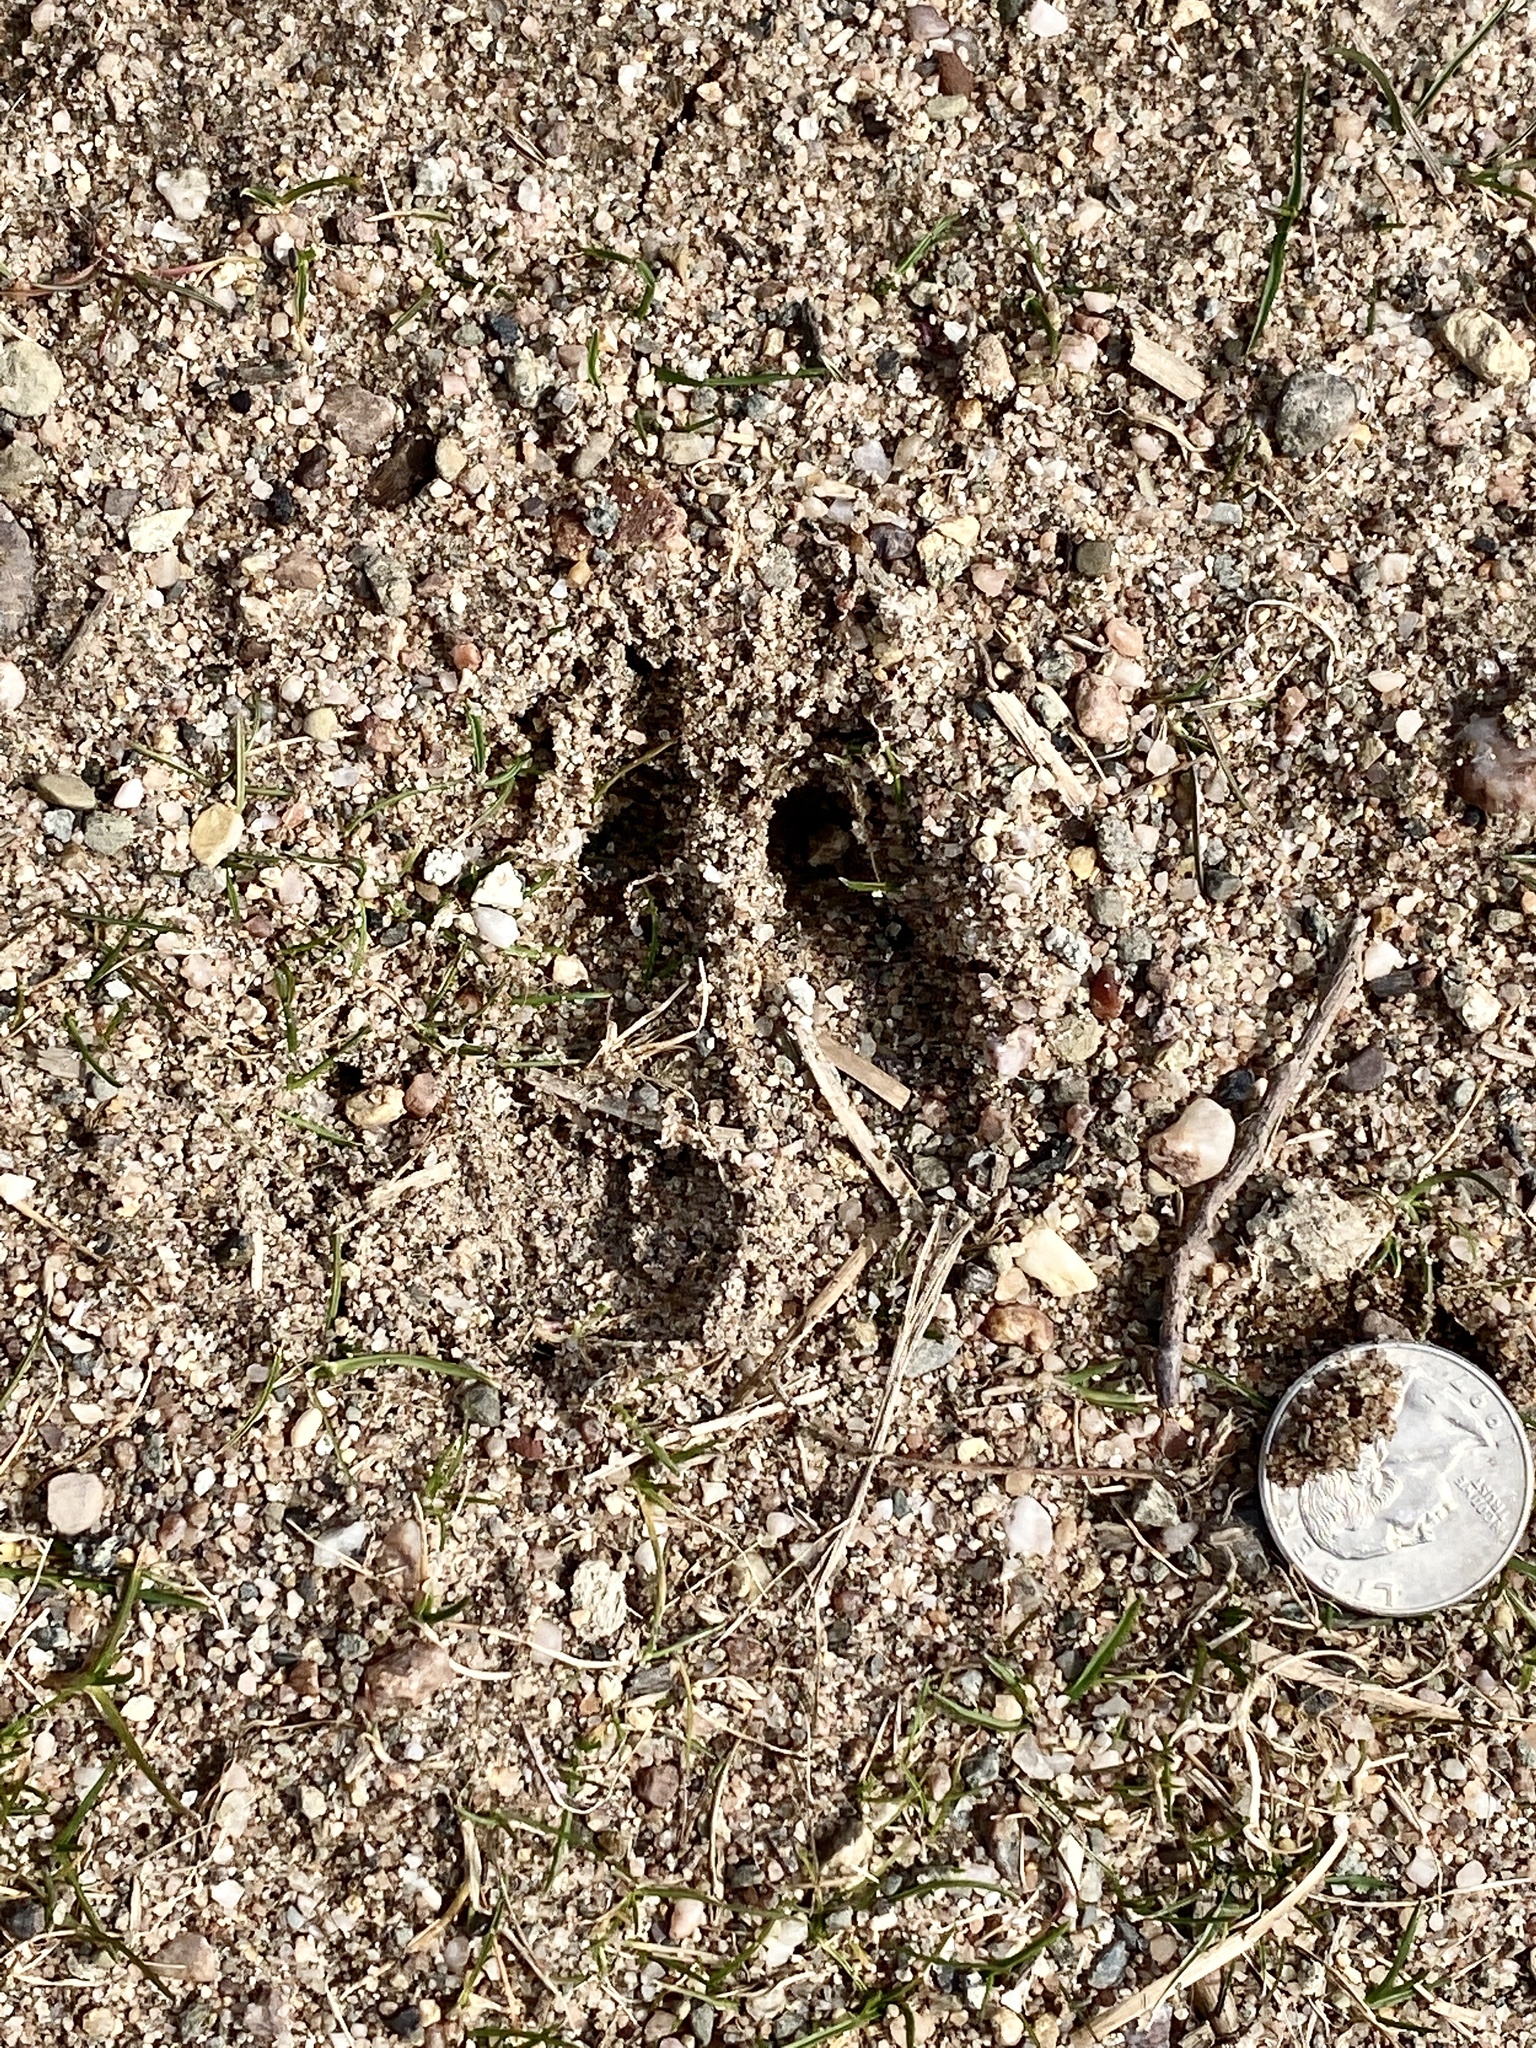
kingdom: Animalia
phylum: Chordata
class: Mammalia
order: Artiodactyla
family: Cervidae
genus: Odocoileus
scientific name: Odocoileus virginianus
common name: White-tailed deer
